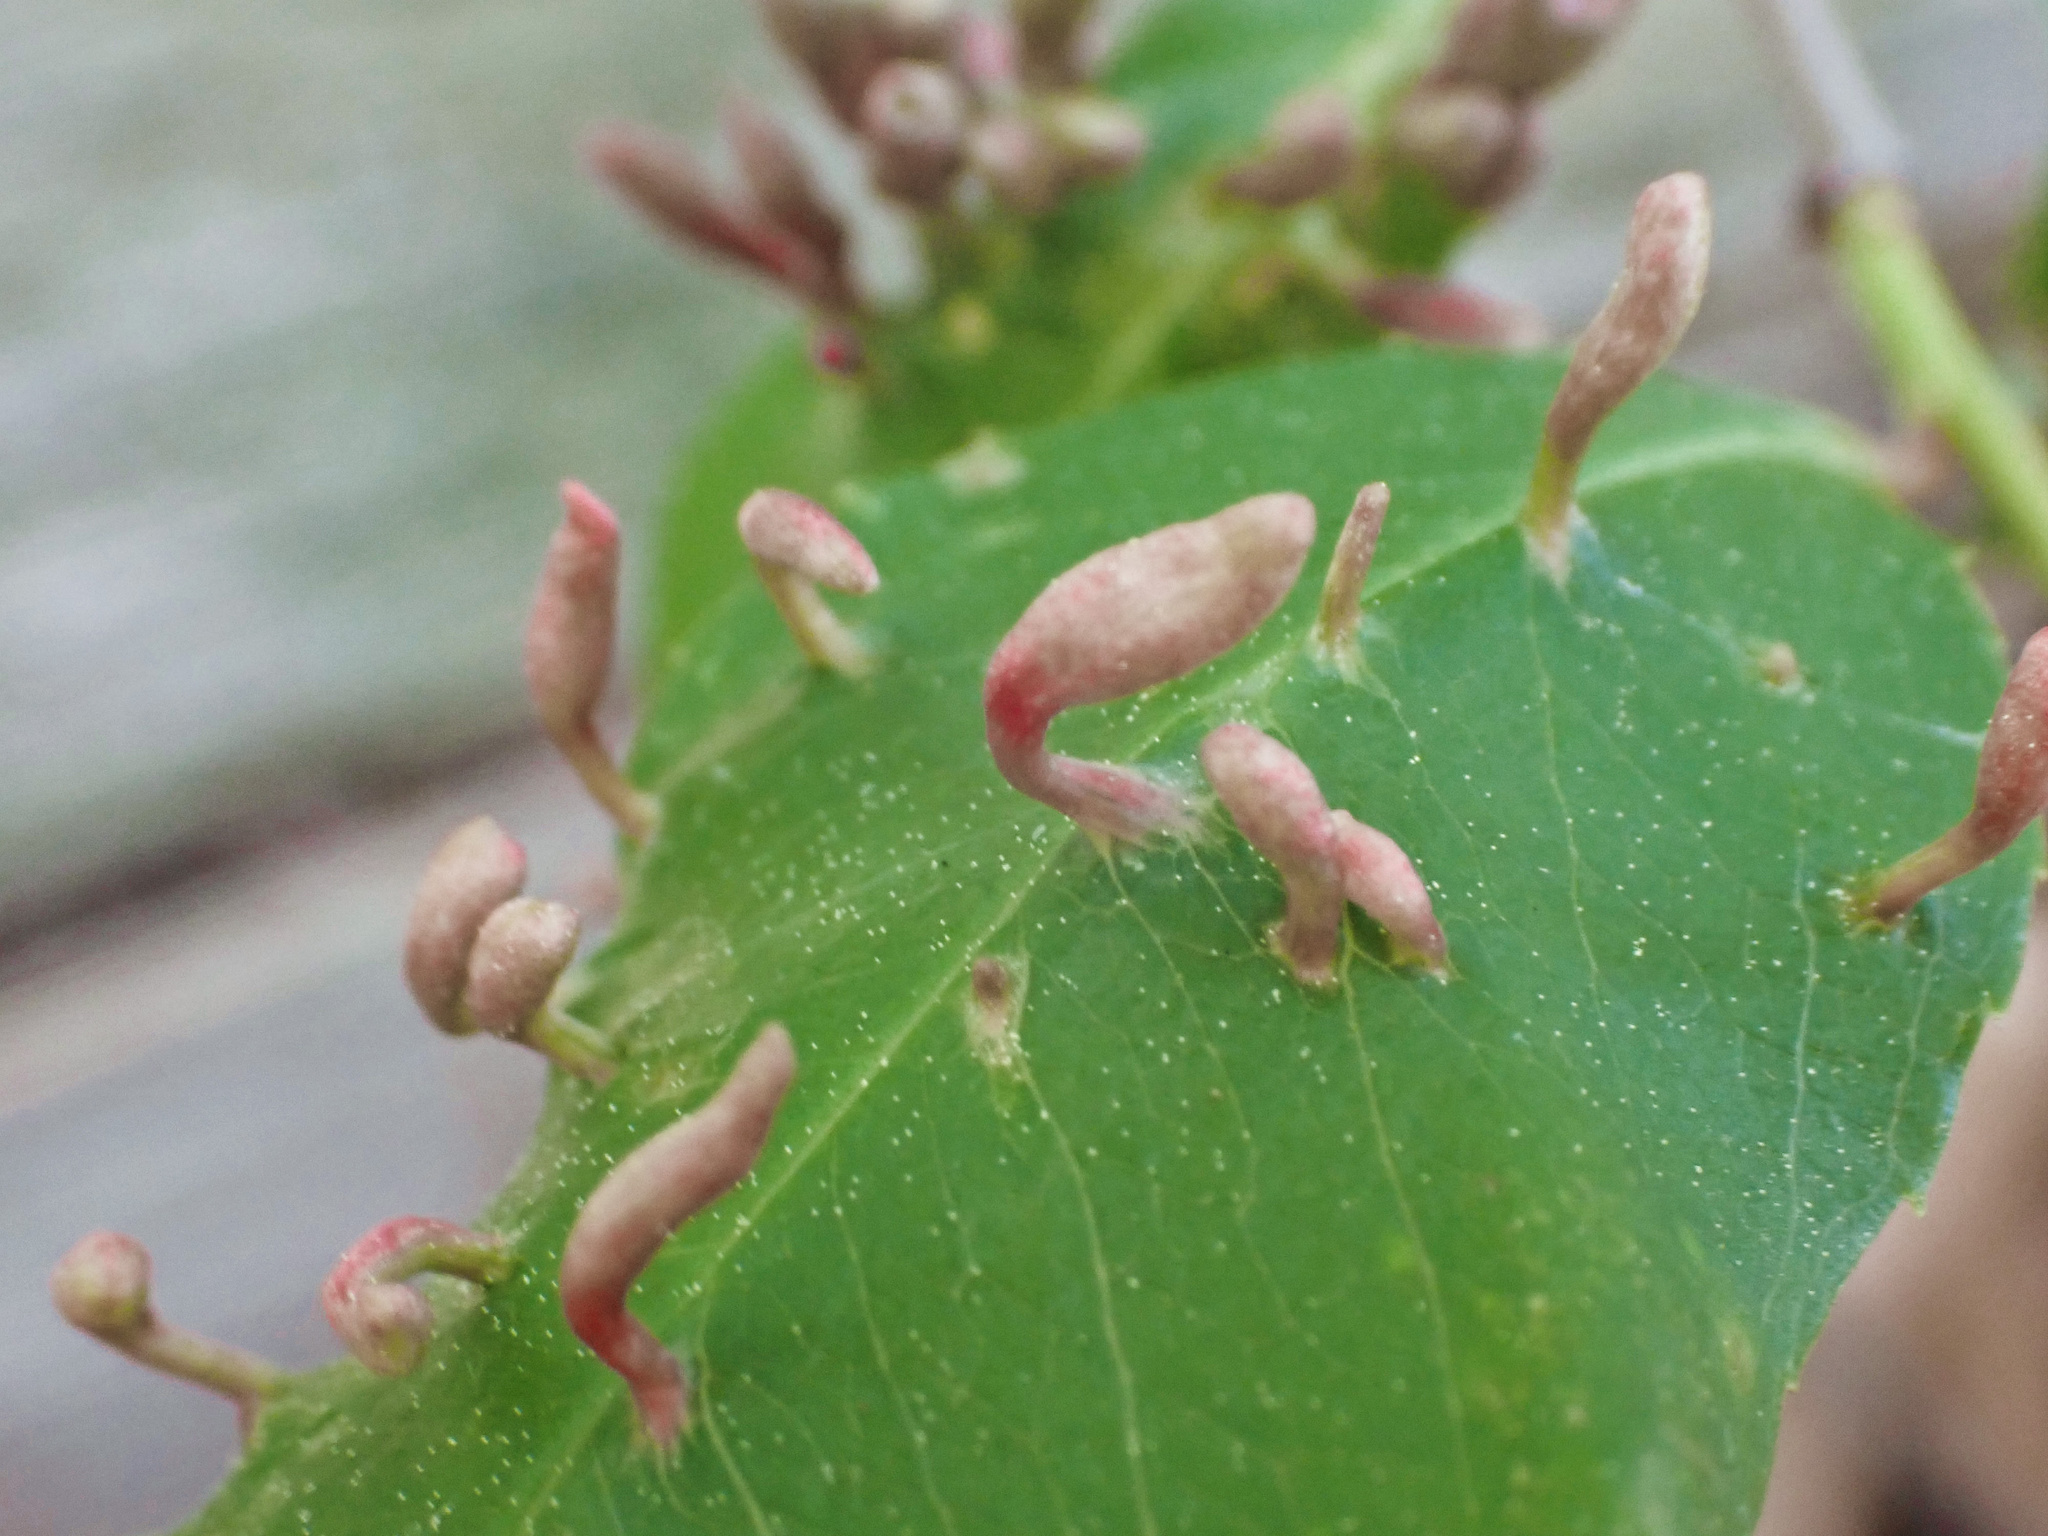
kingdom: Animalia
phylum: Arthropoda
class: Arachnida
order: Trombidiformes
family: Eriophyidae
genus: Eriophyes
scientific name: Eriophyes
